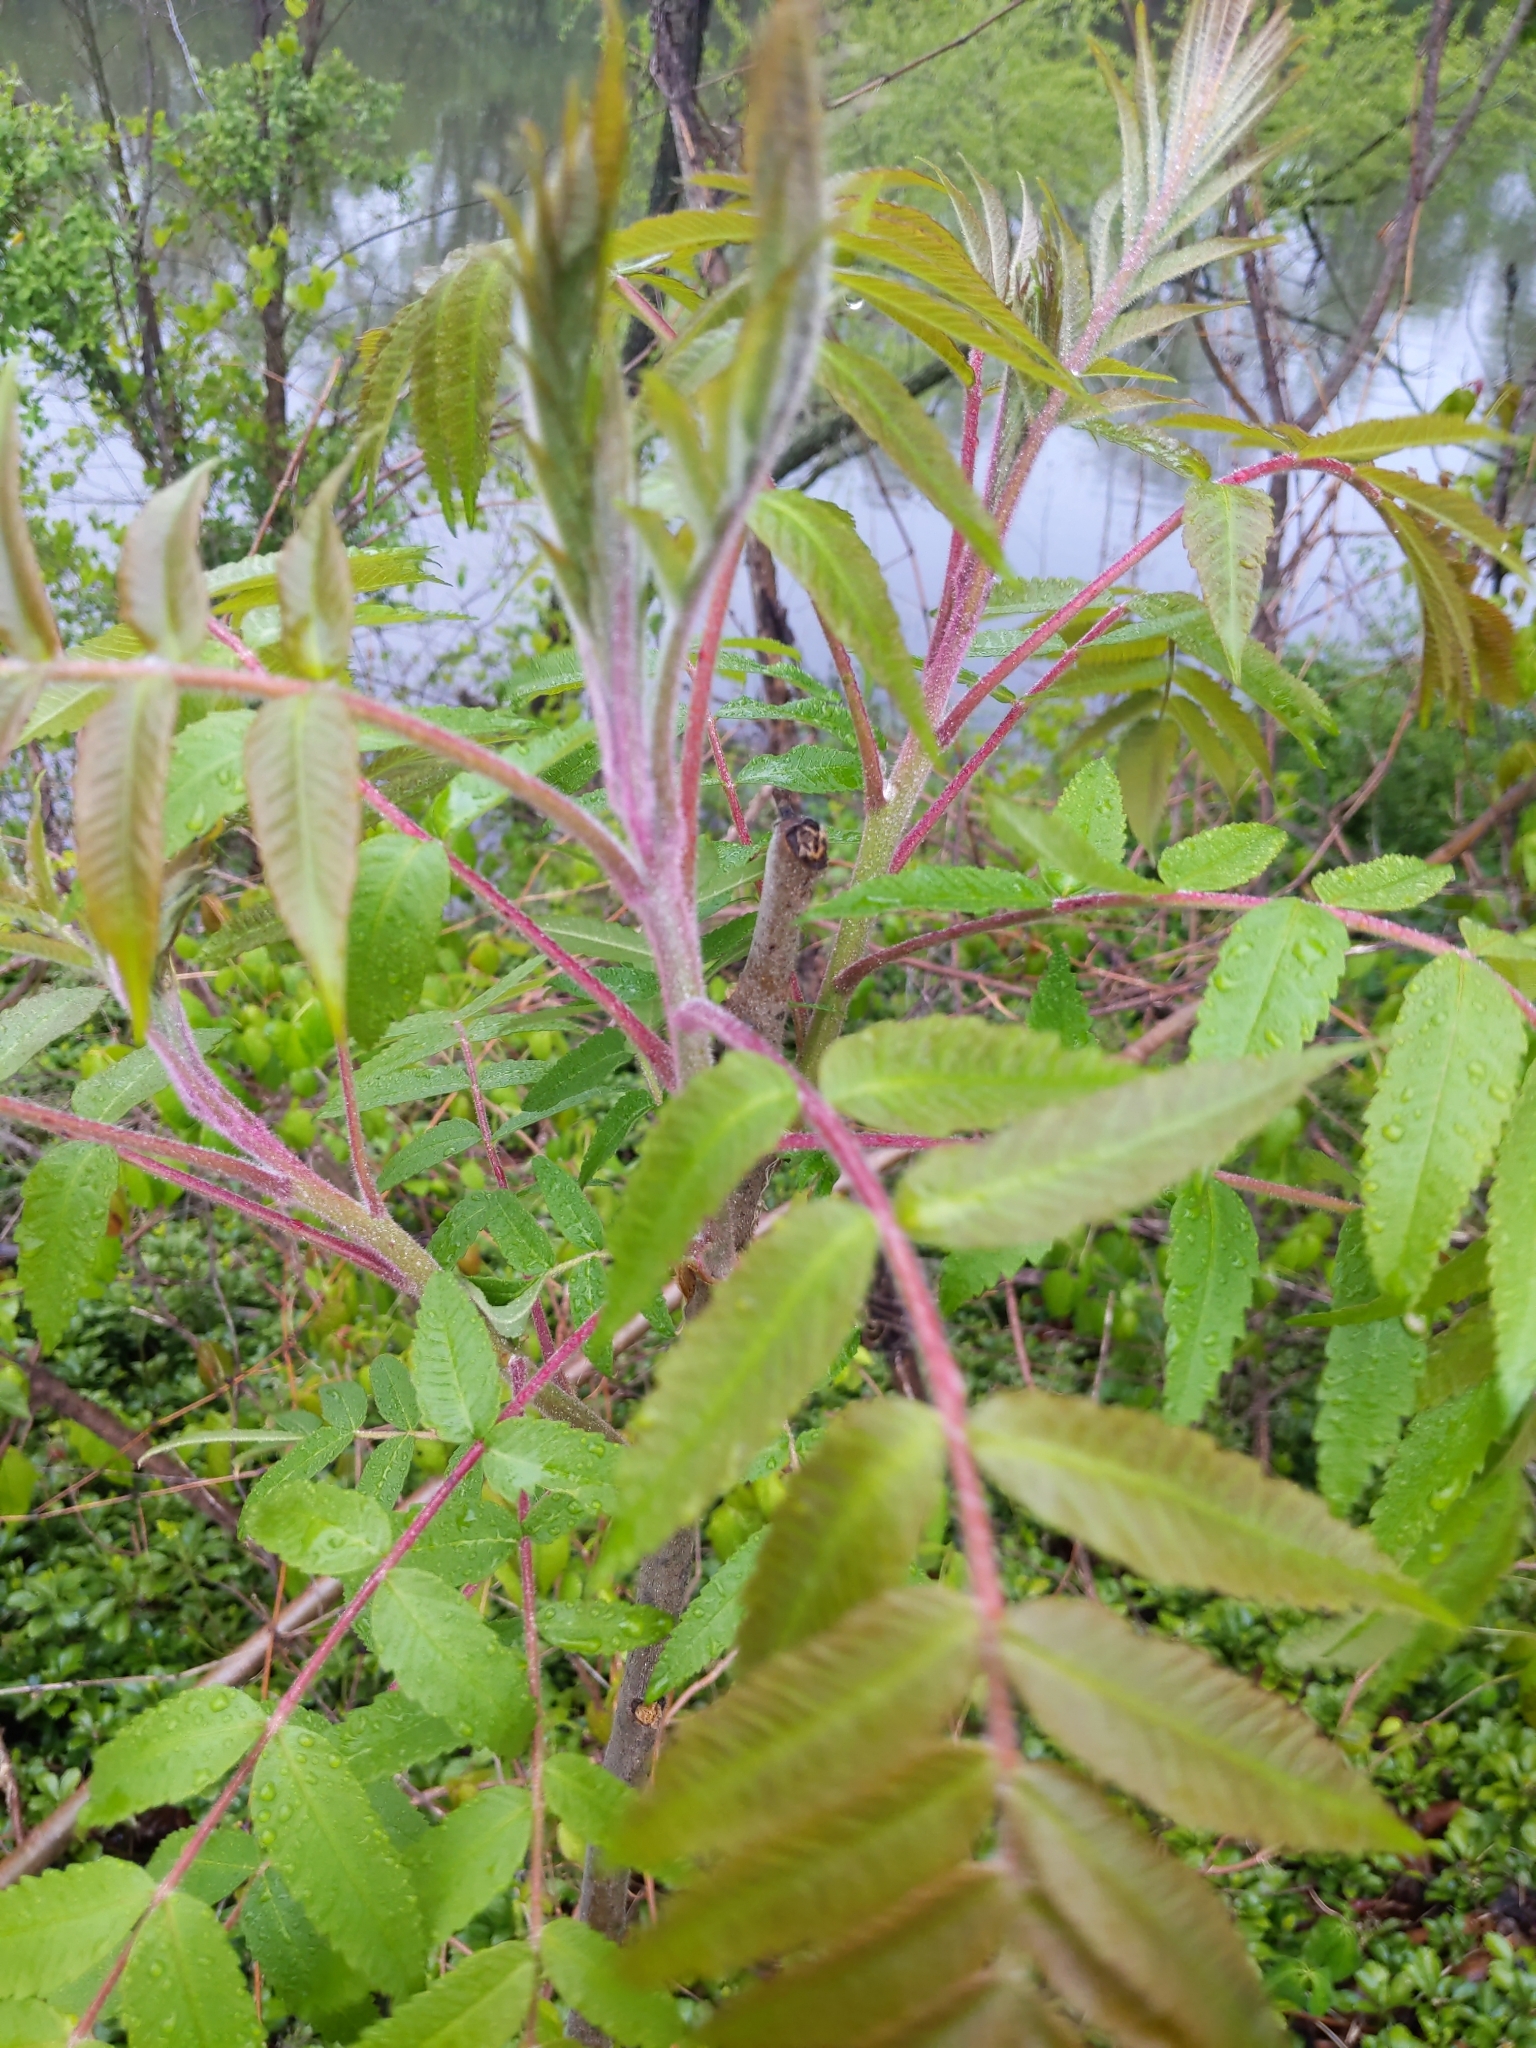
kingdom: Plantae
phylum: Tracheophyta
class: Magnoliopsida
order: Sapindales
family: Anacardiaceae
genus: Rhus
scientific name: Rhus typhina
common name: Staghorn sumac
